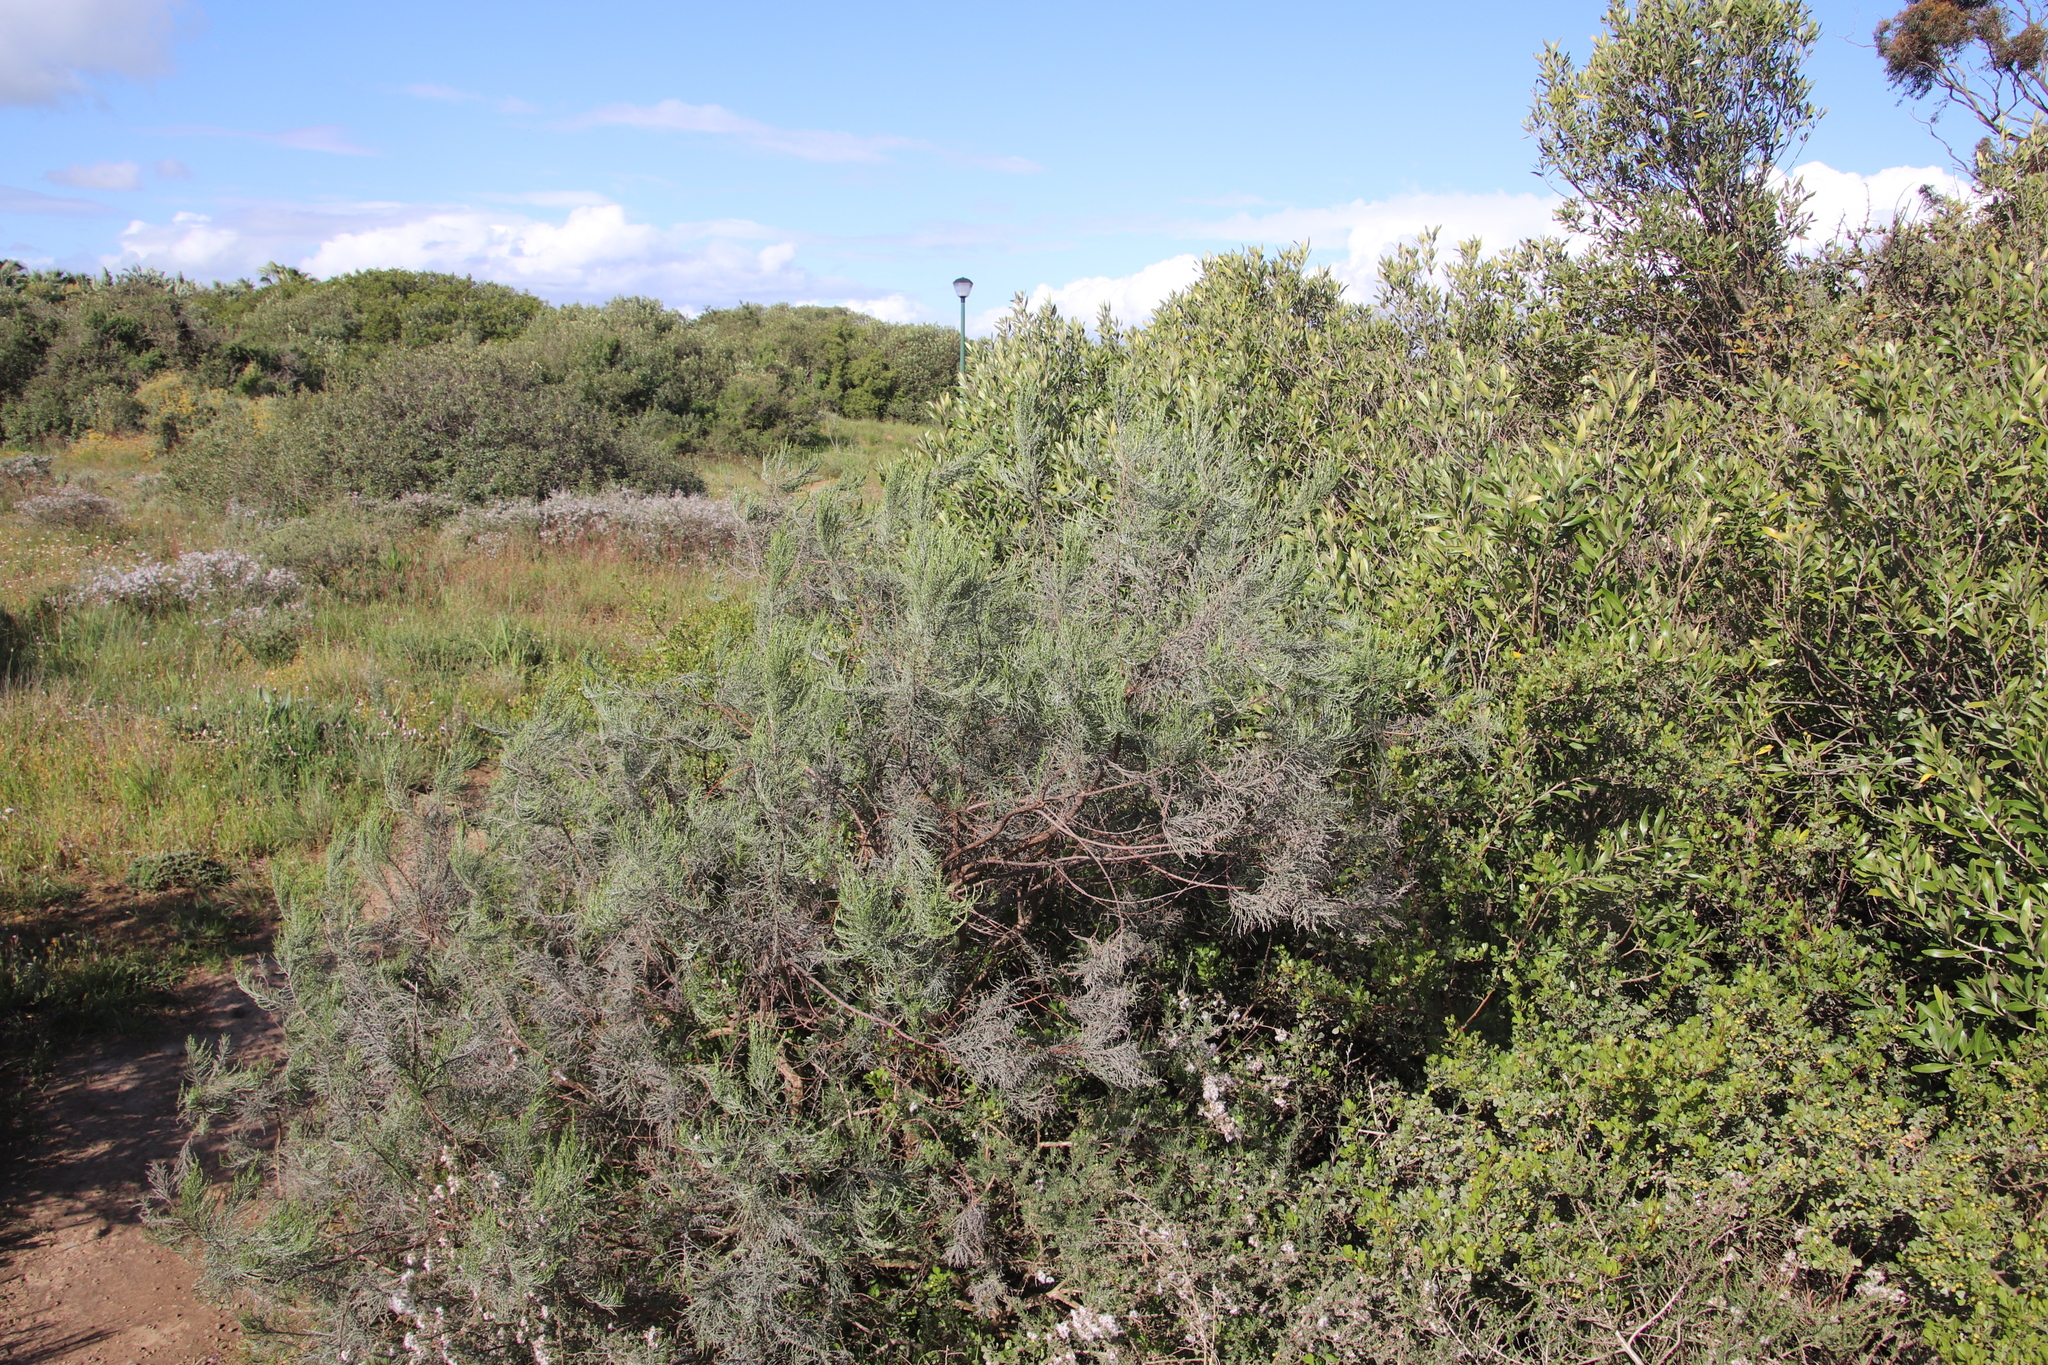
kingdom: Plantae
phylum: Tracheophyta
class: Magnoliopsida
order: Asterales
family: Asteraceae
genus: Dicerothamnus
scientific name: Dicerothamnus rhinocerotis
